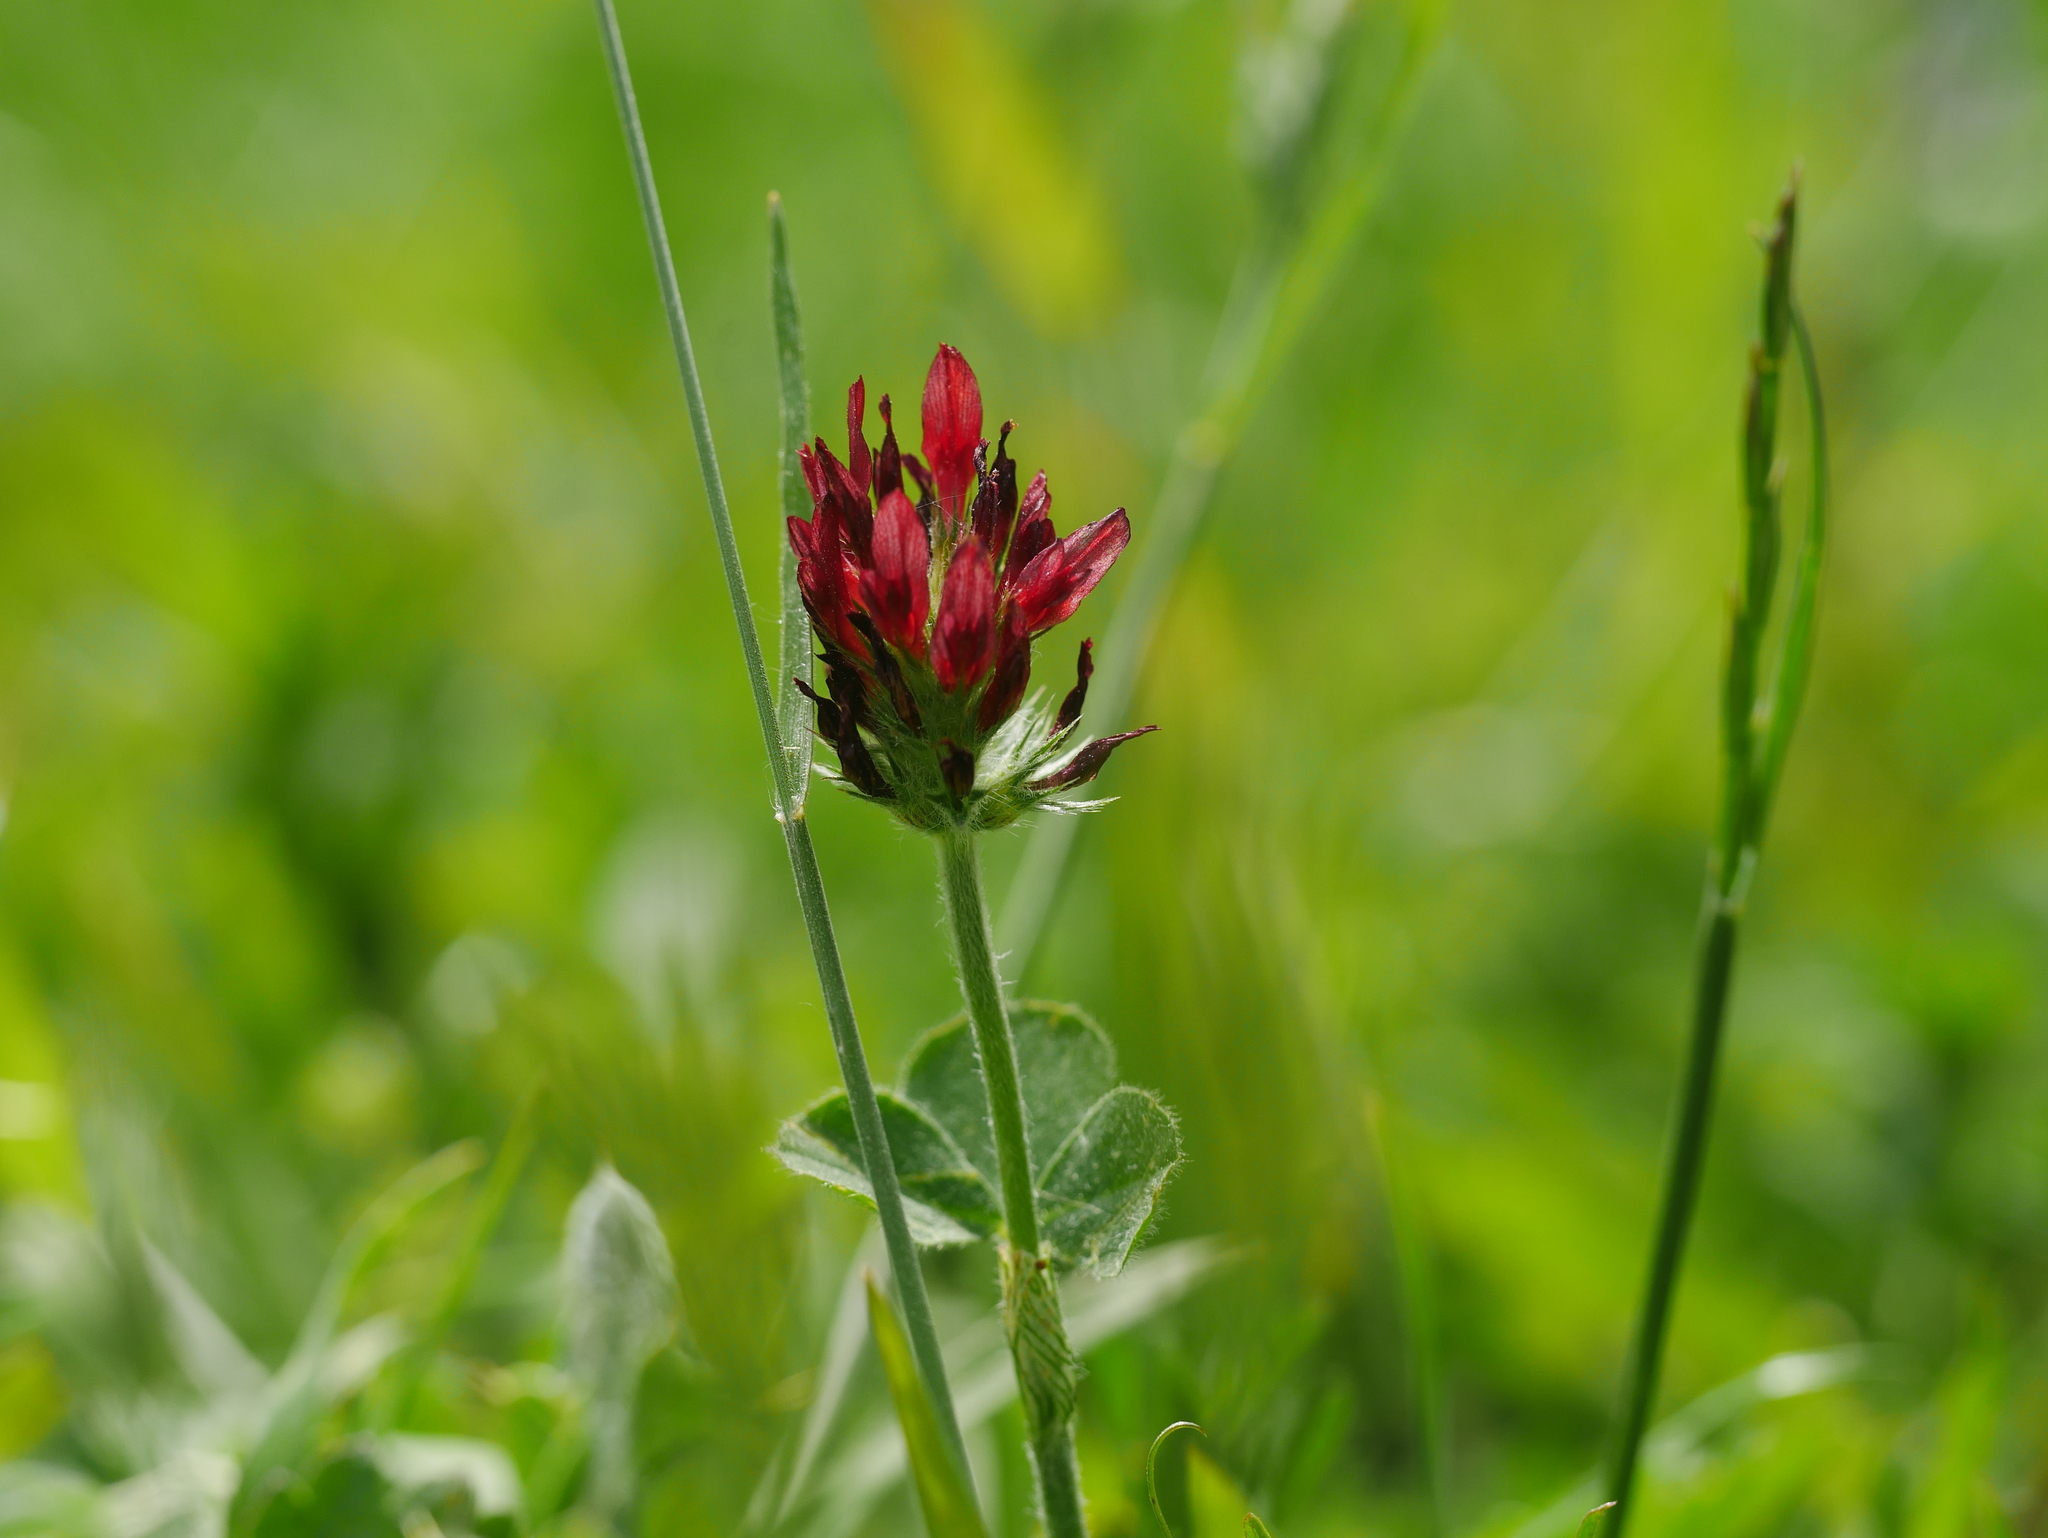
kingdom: Plantae
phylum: Tracheophyta
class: Magnoliopsida
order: Fabales
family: Fabaceae
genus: Trifolium
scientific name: Trifolium incarnatum
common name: Crimson clover
